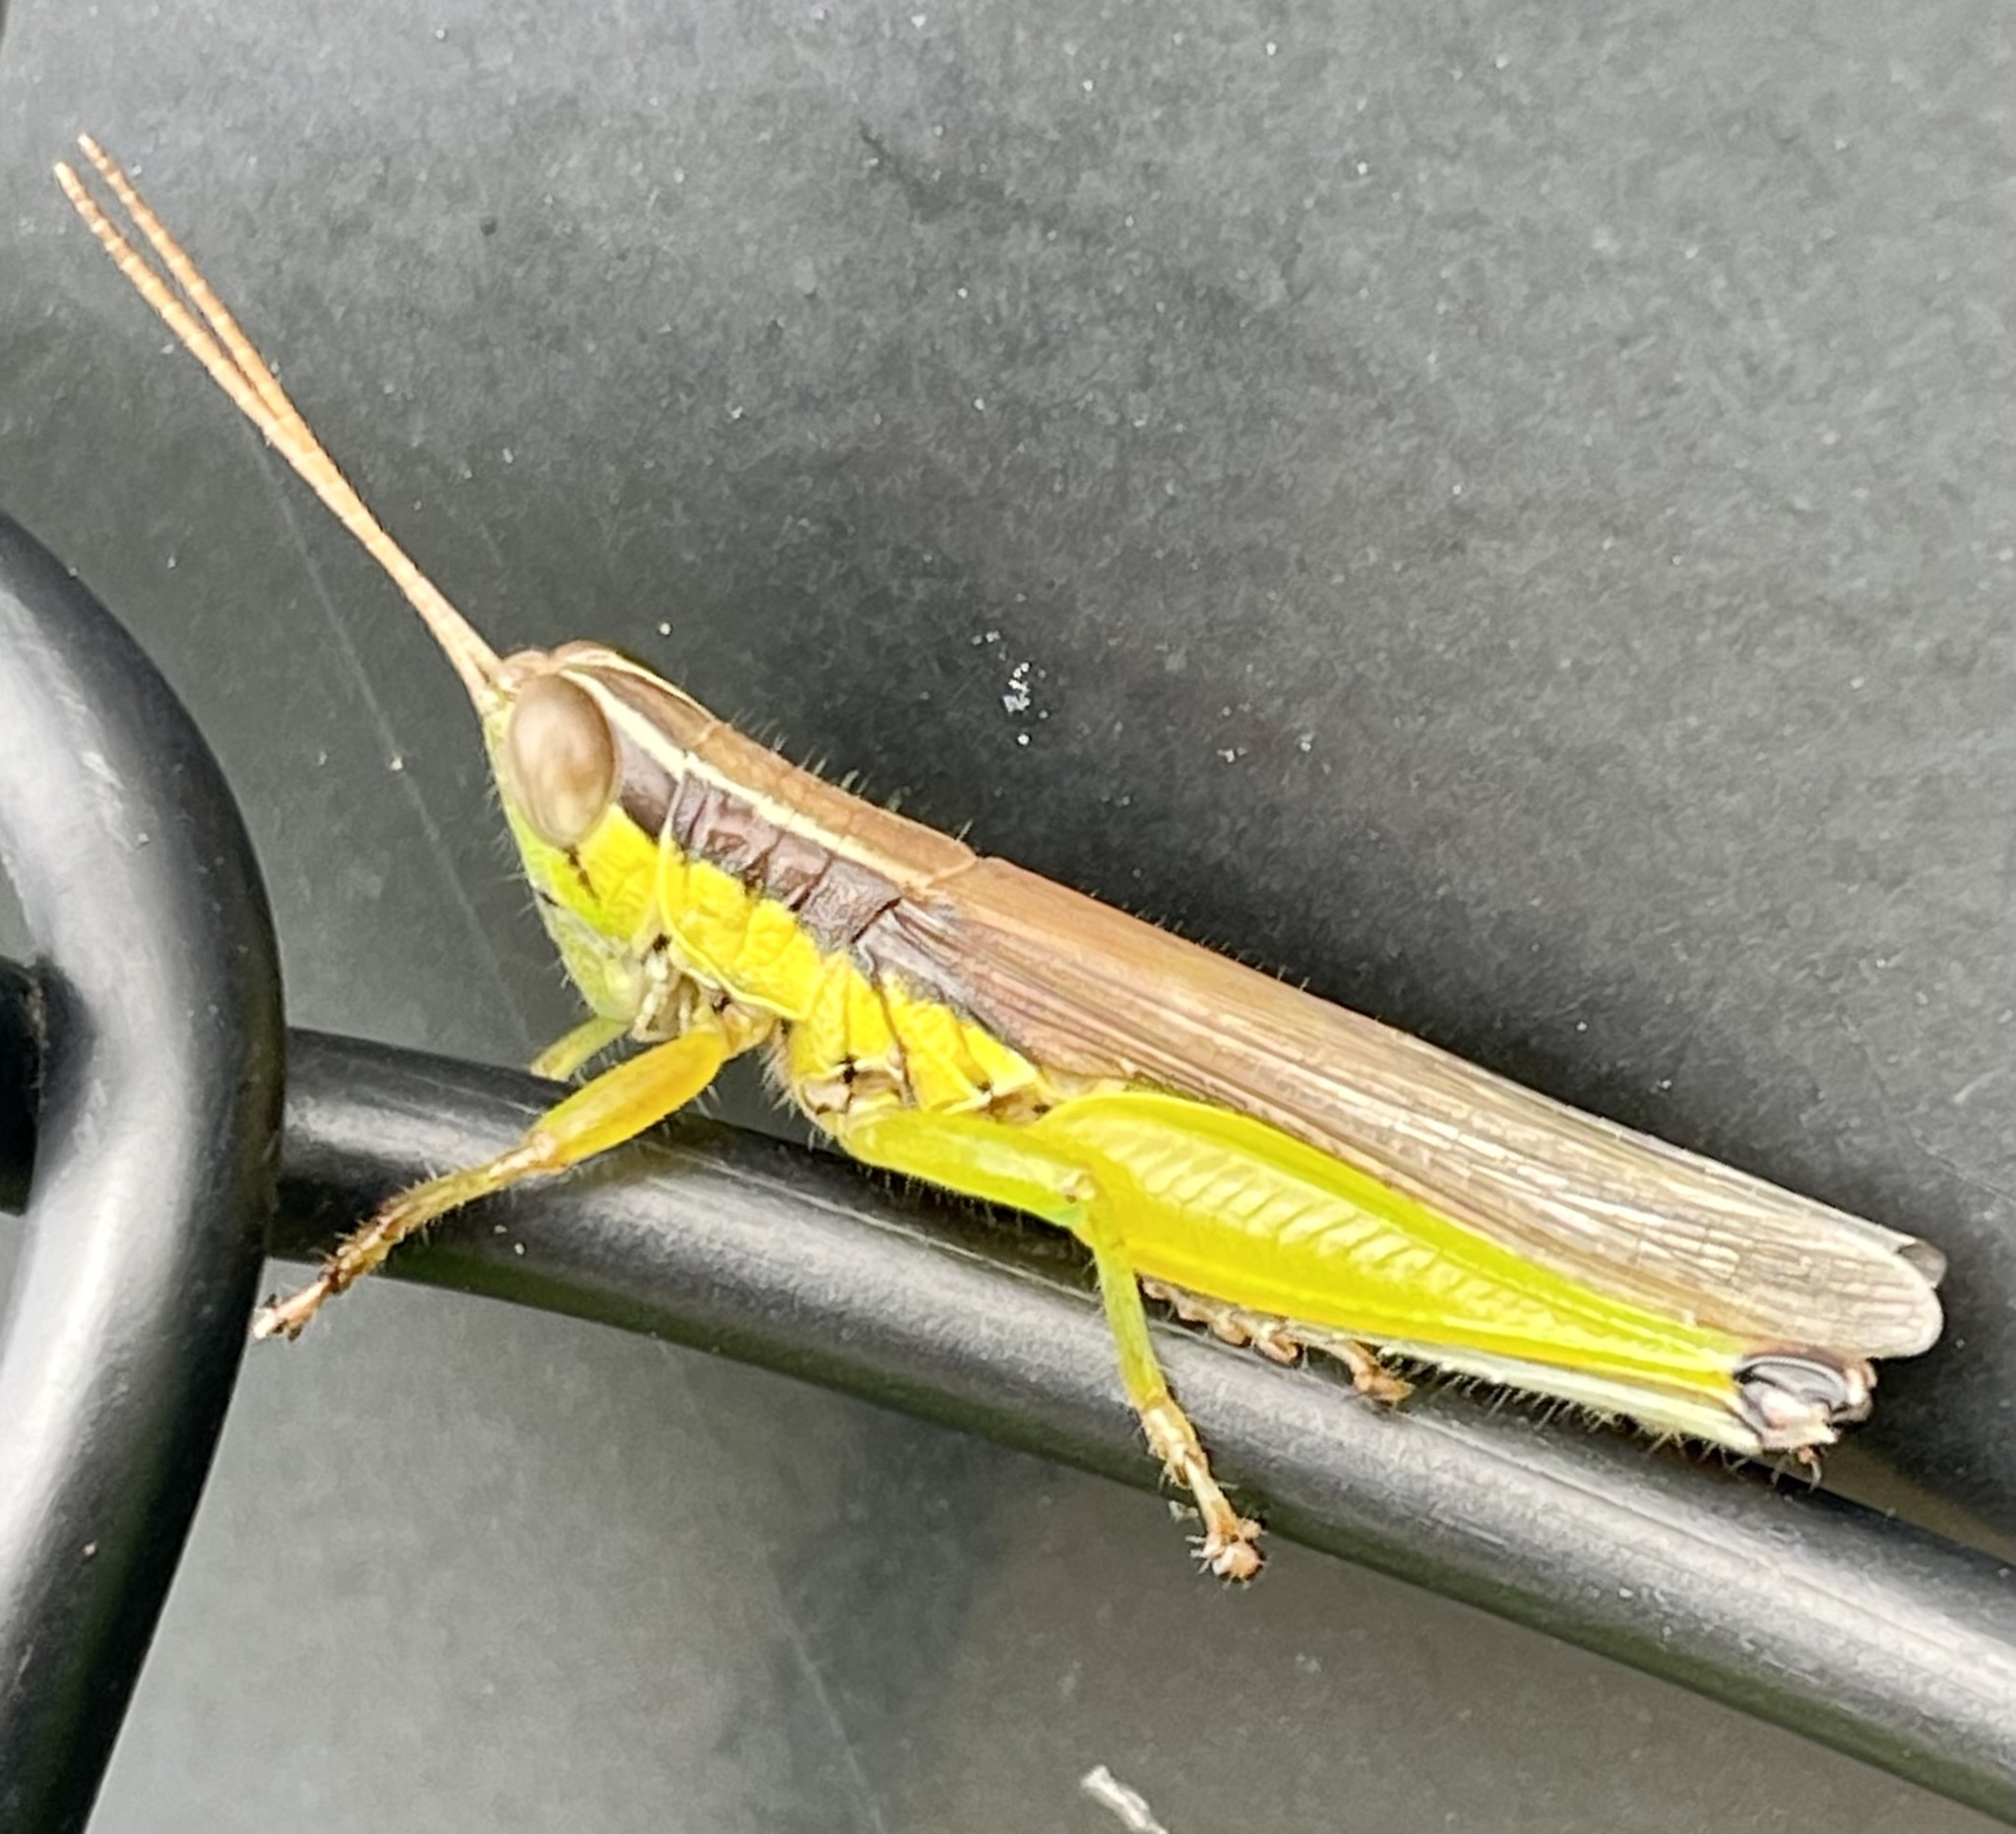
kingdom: Animalia
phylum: Arthropoda
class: Insecta
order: Orthoptera
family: Acrididae
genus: Oxya
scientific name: Oxya japonica
